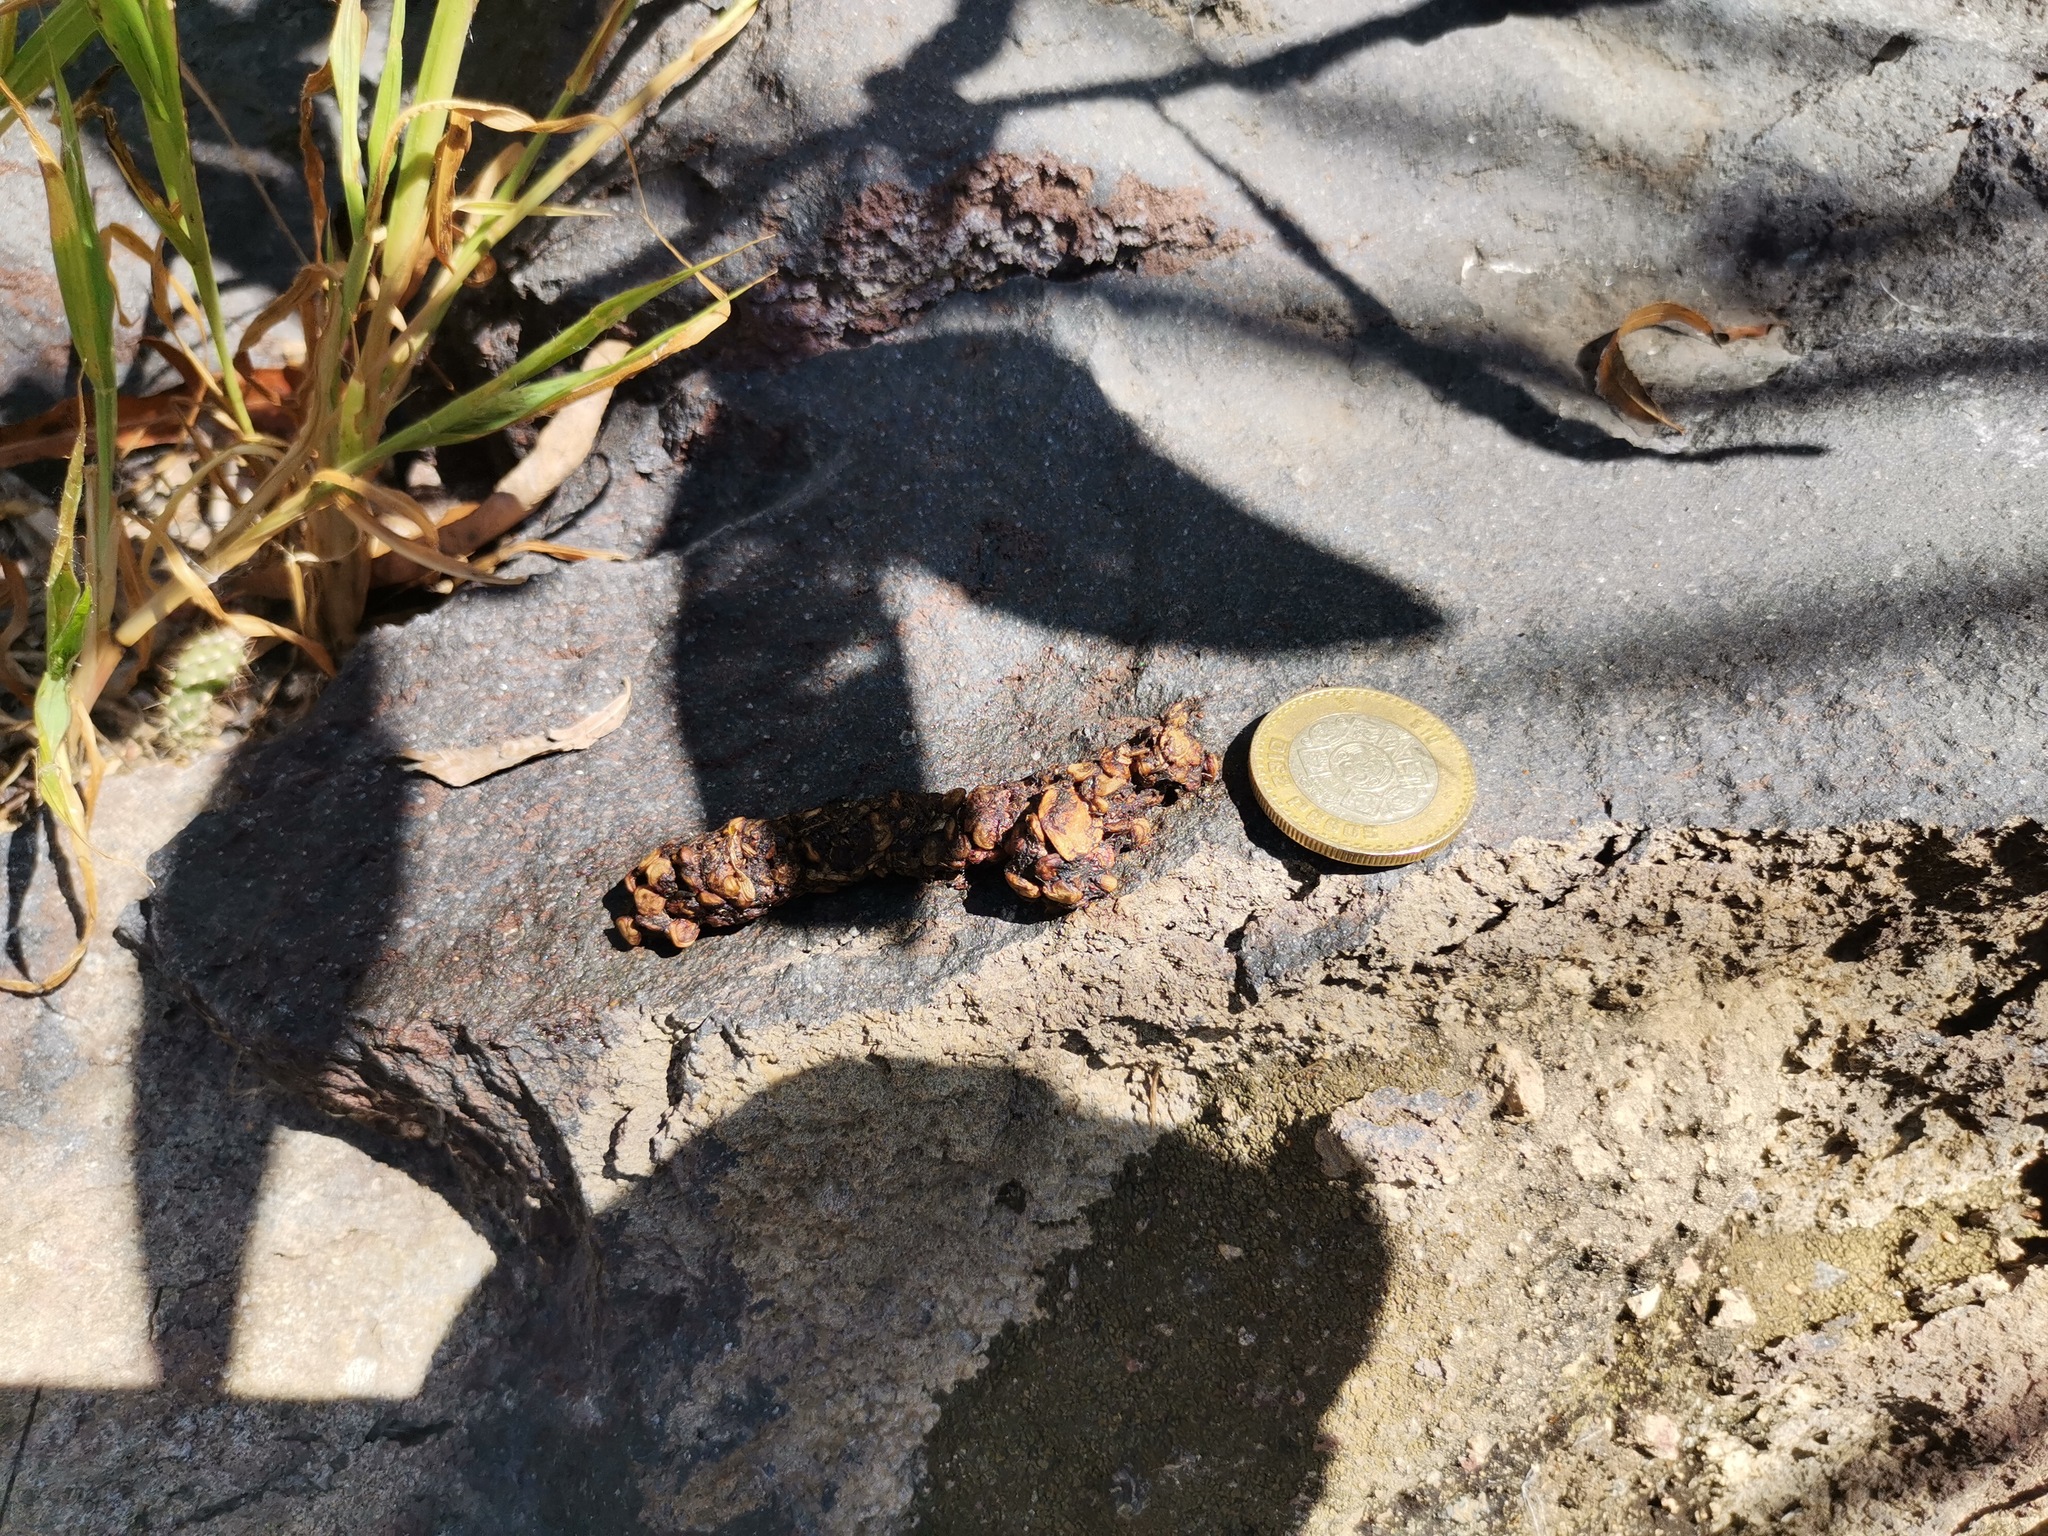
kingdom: Animalia
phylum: Chordata
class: Mammalia
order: Carnivora
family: Procyonidae
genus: Bassariscus
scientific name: Bassariscus astutus
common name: Ringtail
